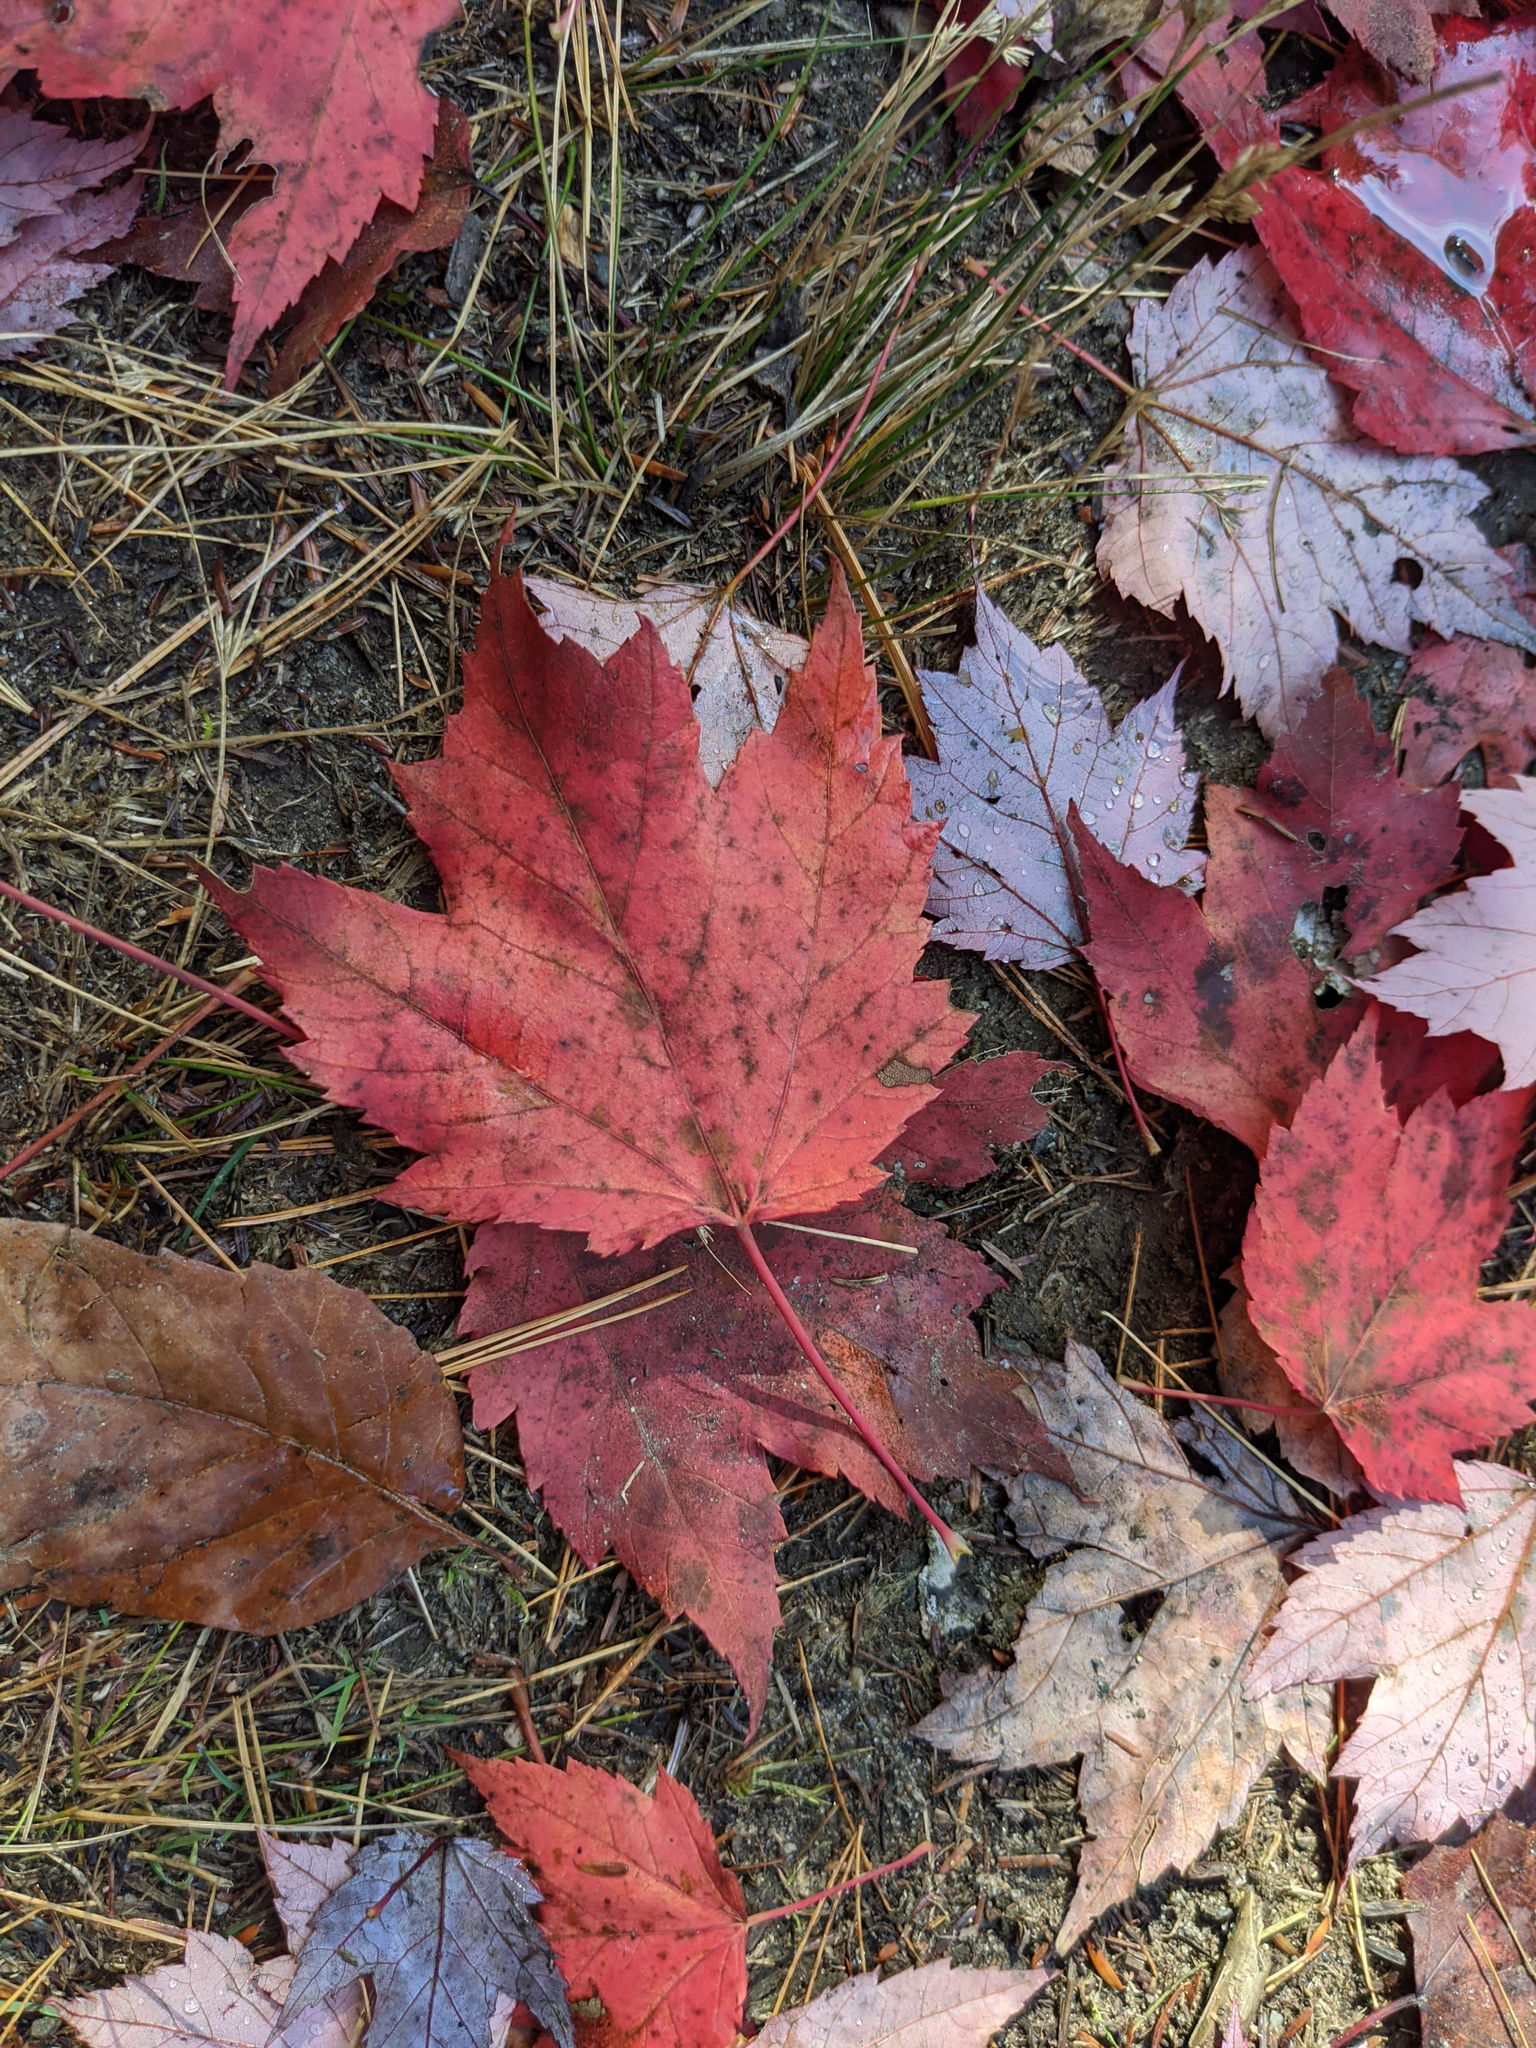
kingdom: Plantae
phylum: Tracheophyta
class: Magnoliopsida
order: Sapindales
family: Sapindaceae
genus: Acer
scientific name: Acer rubrum
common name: Red maple
